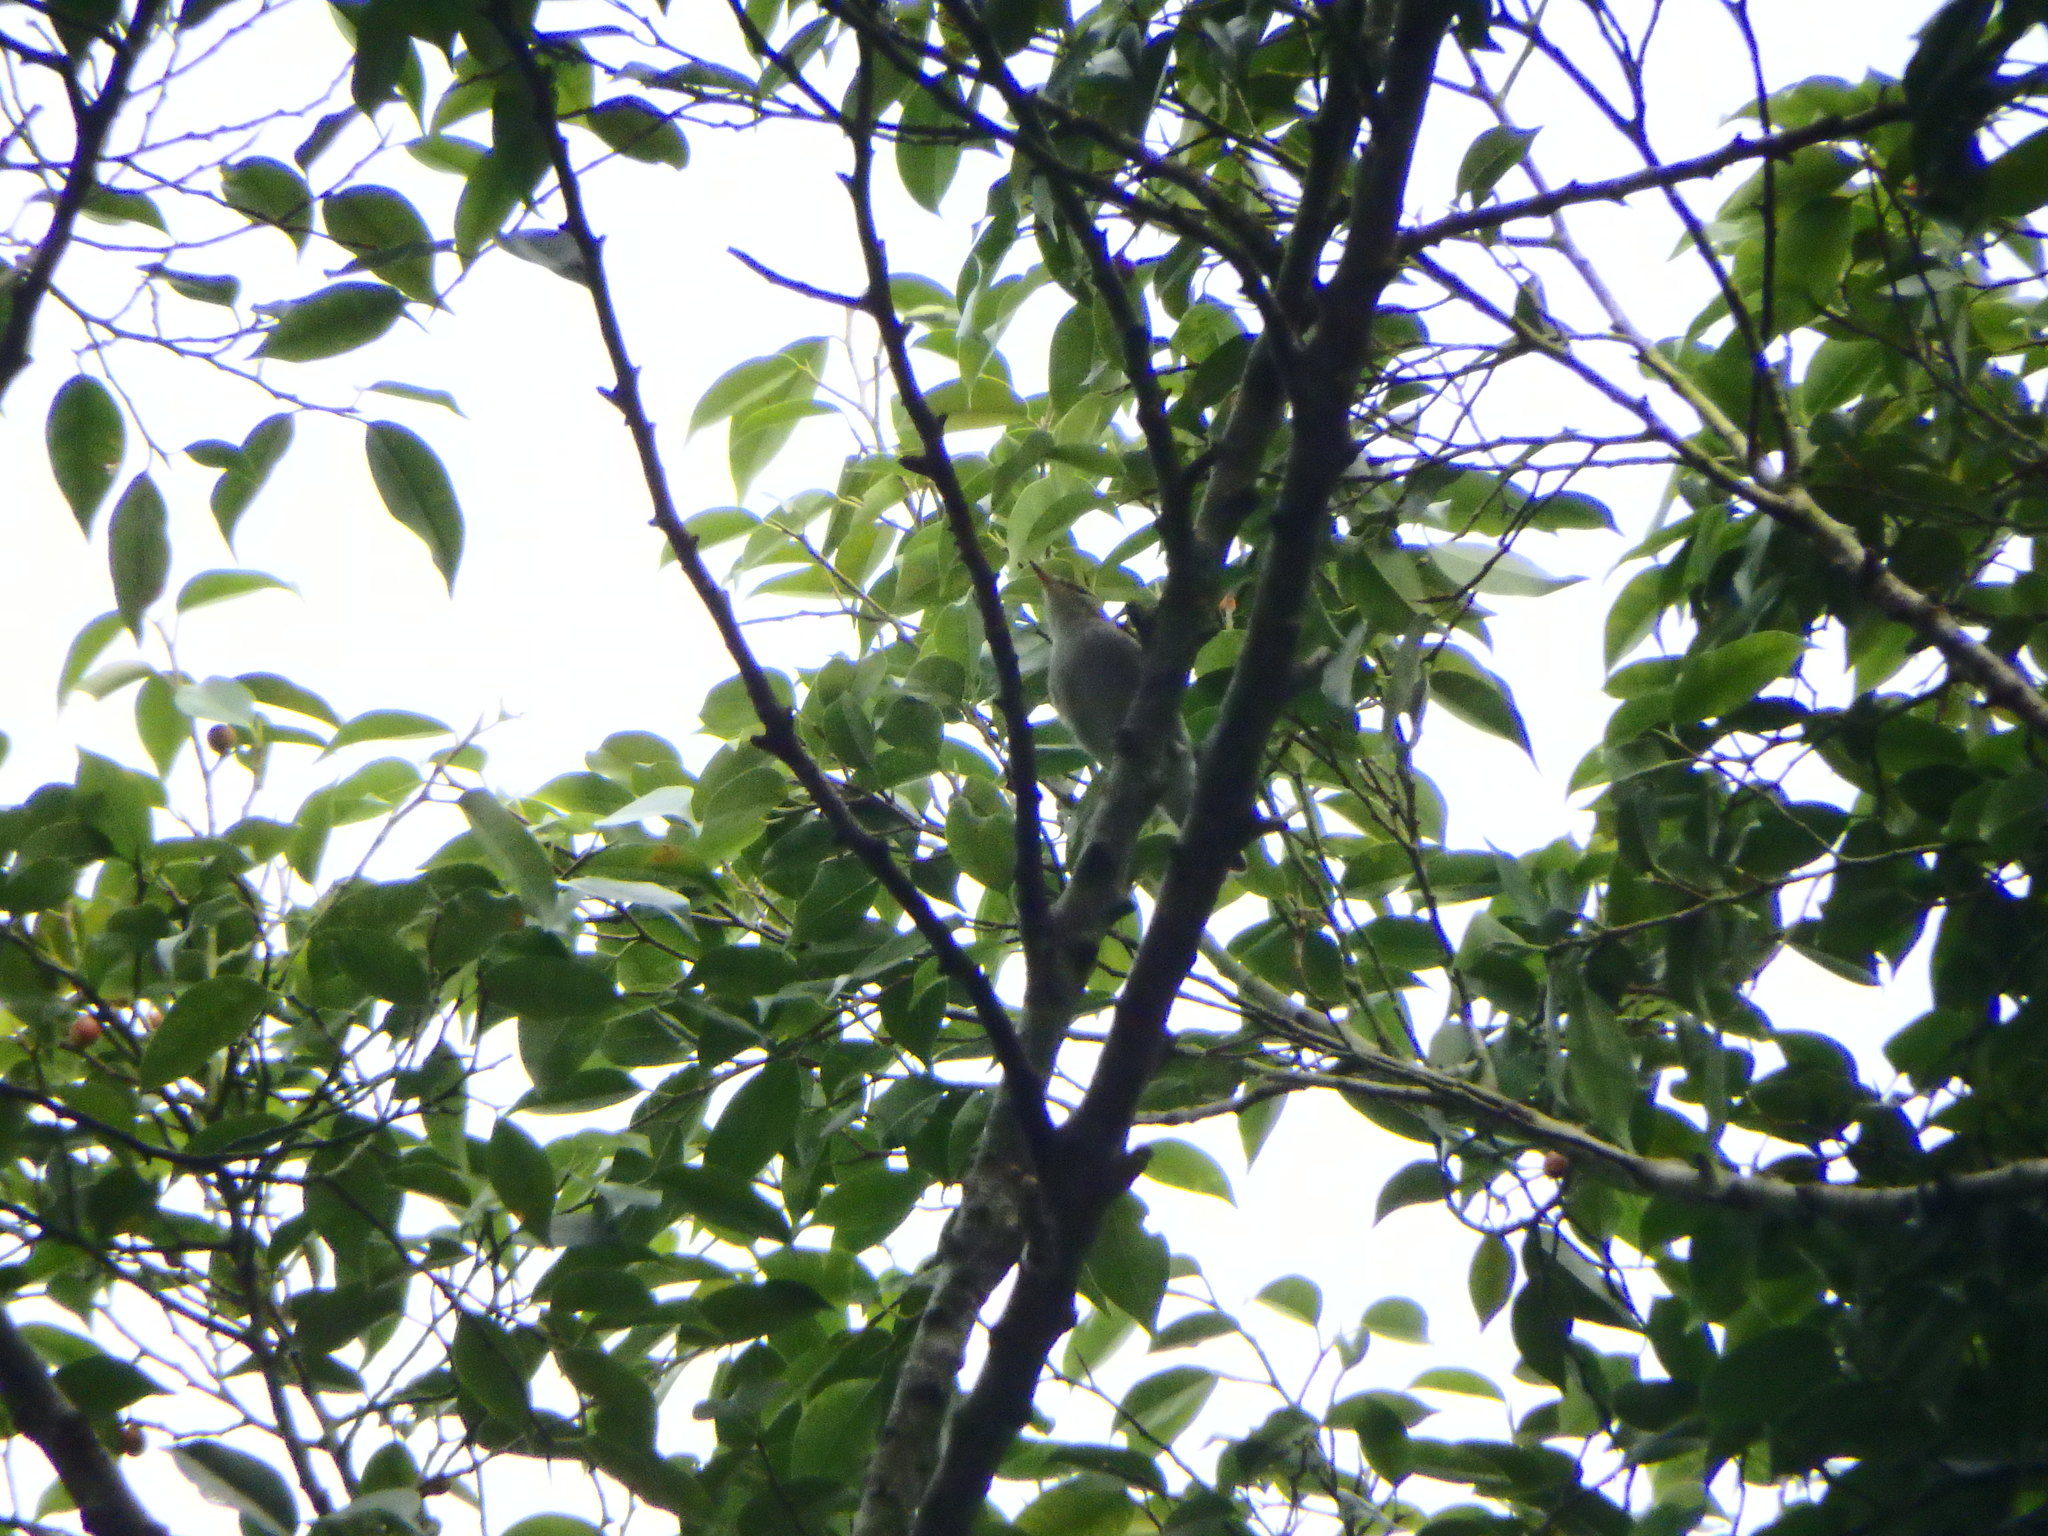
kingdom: Animalia
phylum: Chordata
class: Aves
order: Passeriformes
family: Phylloscopidae
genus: Phylloscopus
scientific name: Phylloscopus borealis
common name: Arctic warbler
